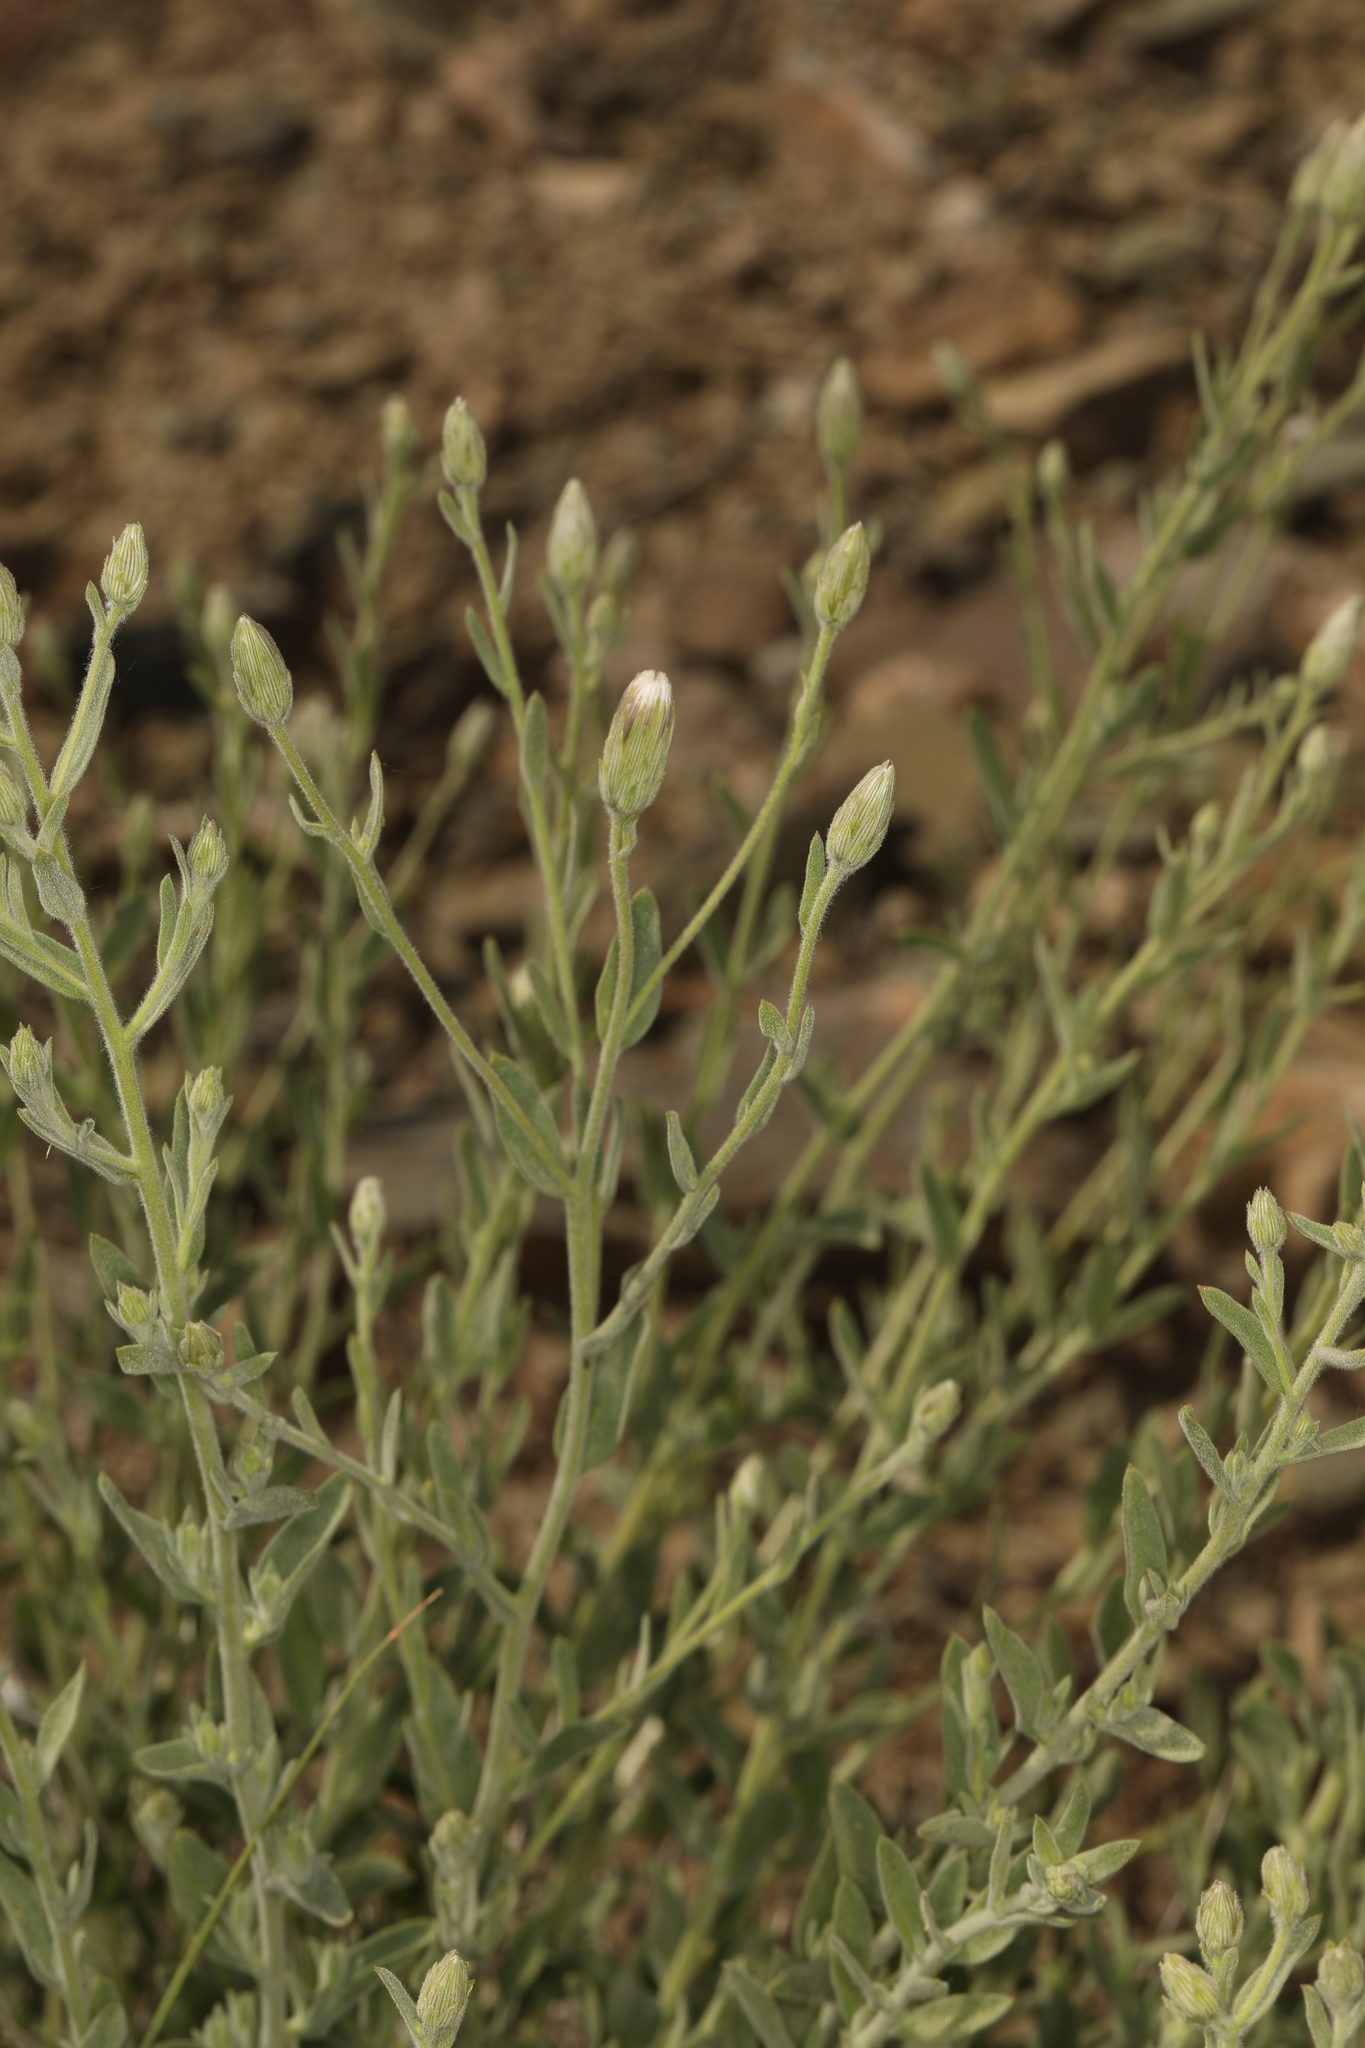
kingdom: Plantae
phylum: Tracheophyta
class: Magnoliopsida
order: Asterales
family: Asteraceae
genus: Brickellia
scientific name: Brickellia oblongifolia
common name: Mojave brickellbush
